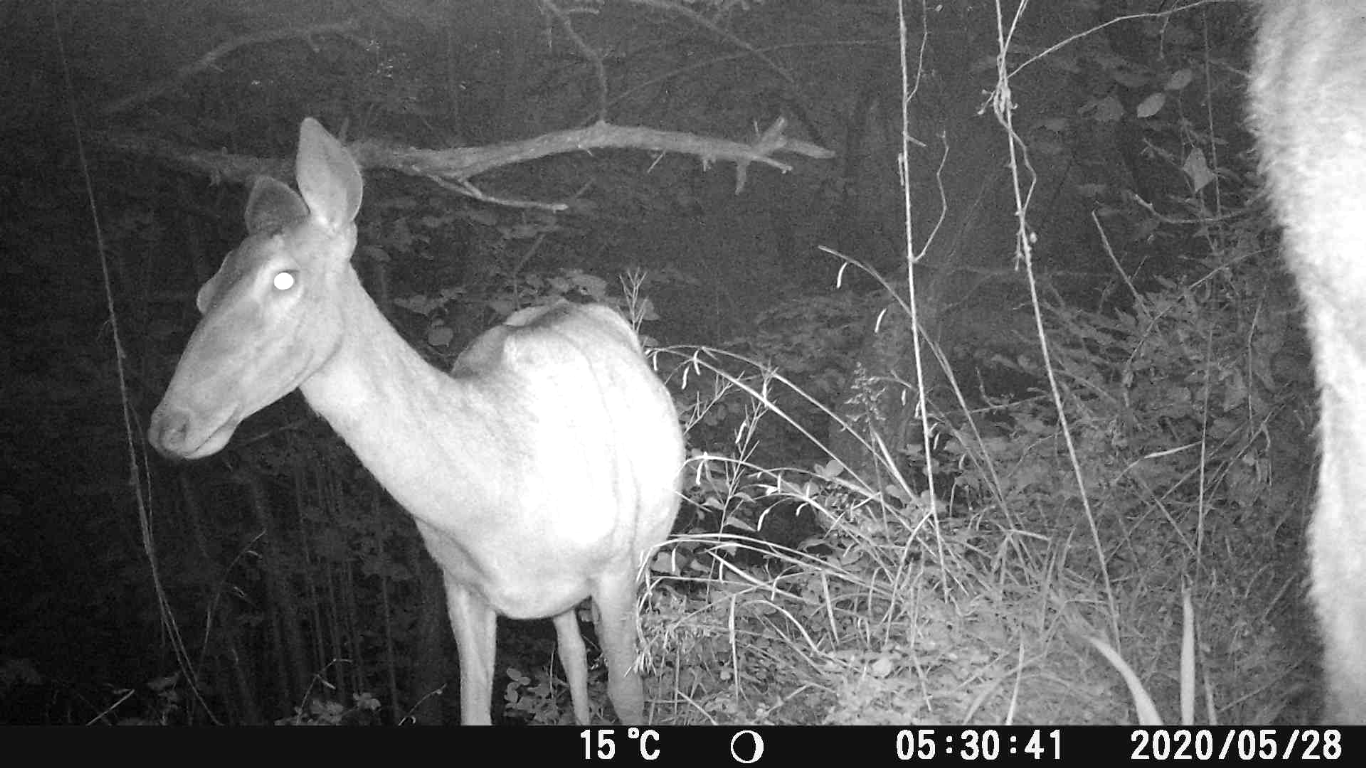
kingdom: Animalia
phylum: Chordata
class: Mammalia
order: Artiodactyla
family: Cervidae
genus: Cervus
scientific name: Cervus elaphus
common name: Red deer
